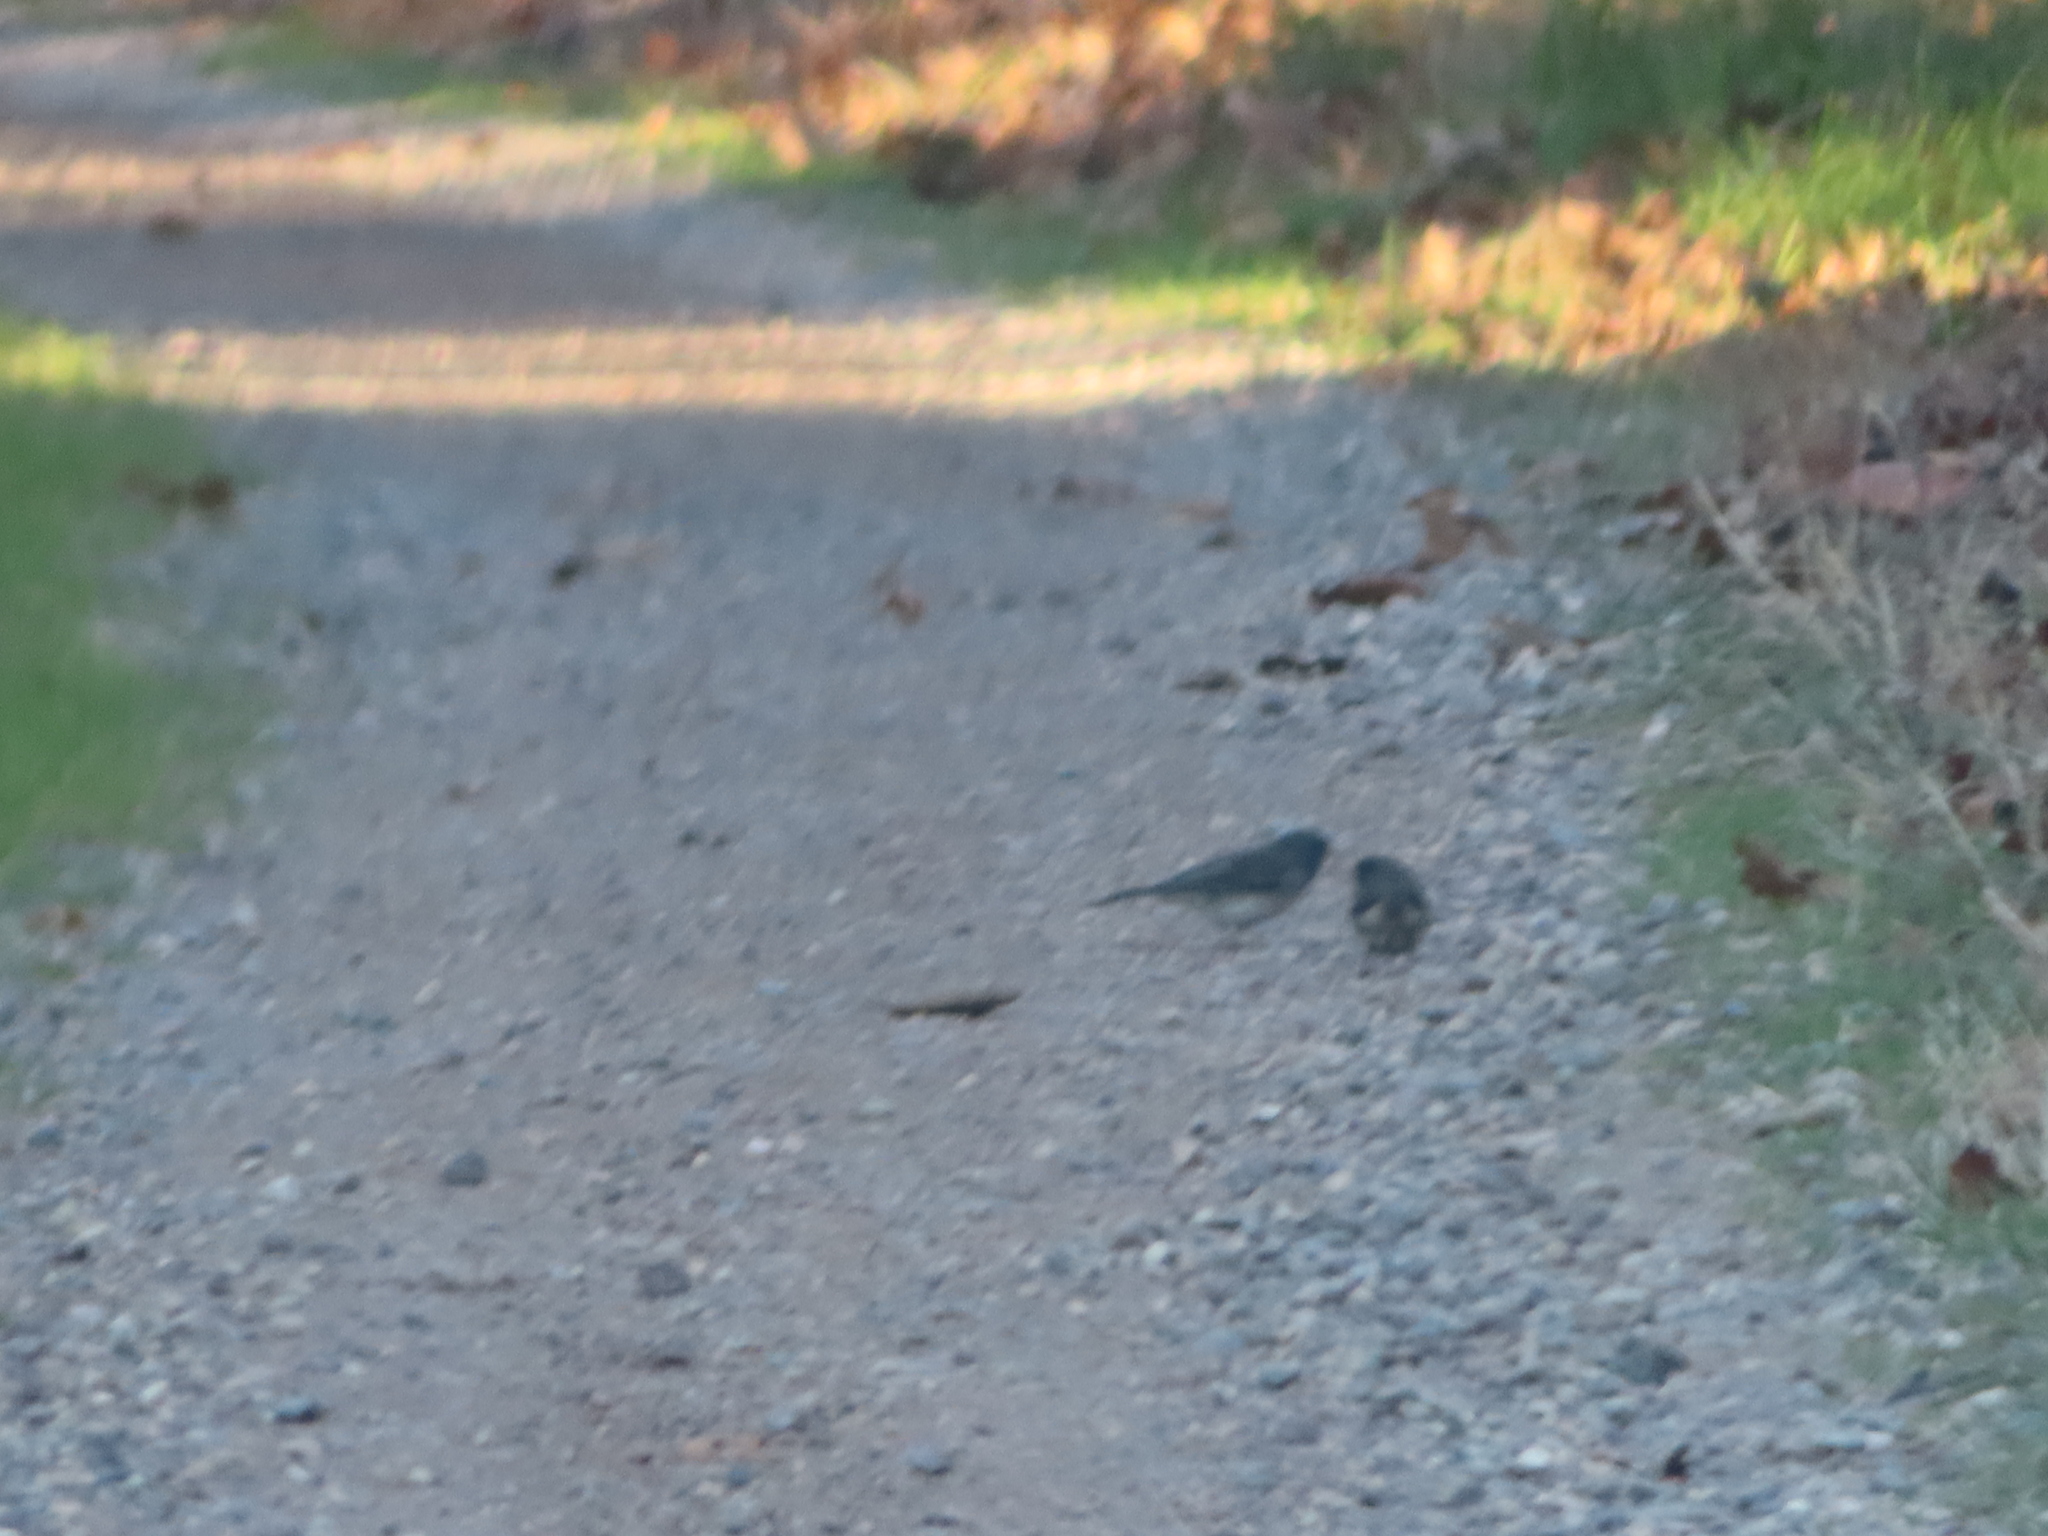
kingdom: Animalia
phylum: Chordata
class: Aves
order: Passeriformes
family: Passerellidae
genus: Junco
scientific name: Junco hyemalis
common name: Dark-eyed junco
